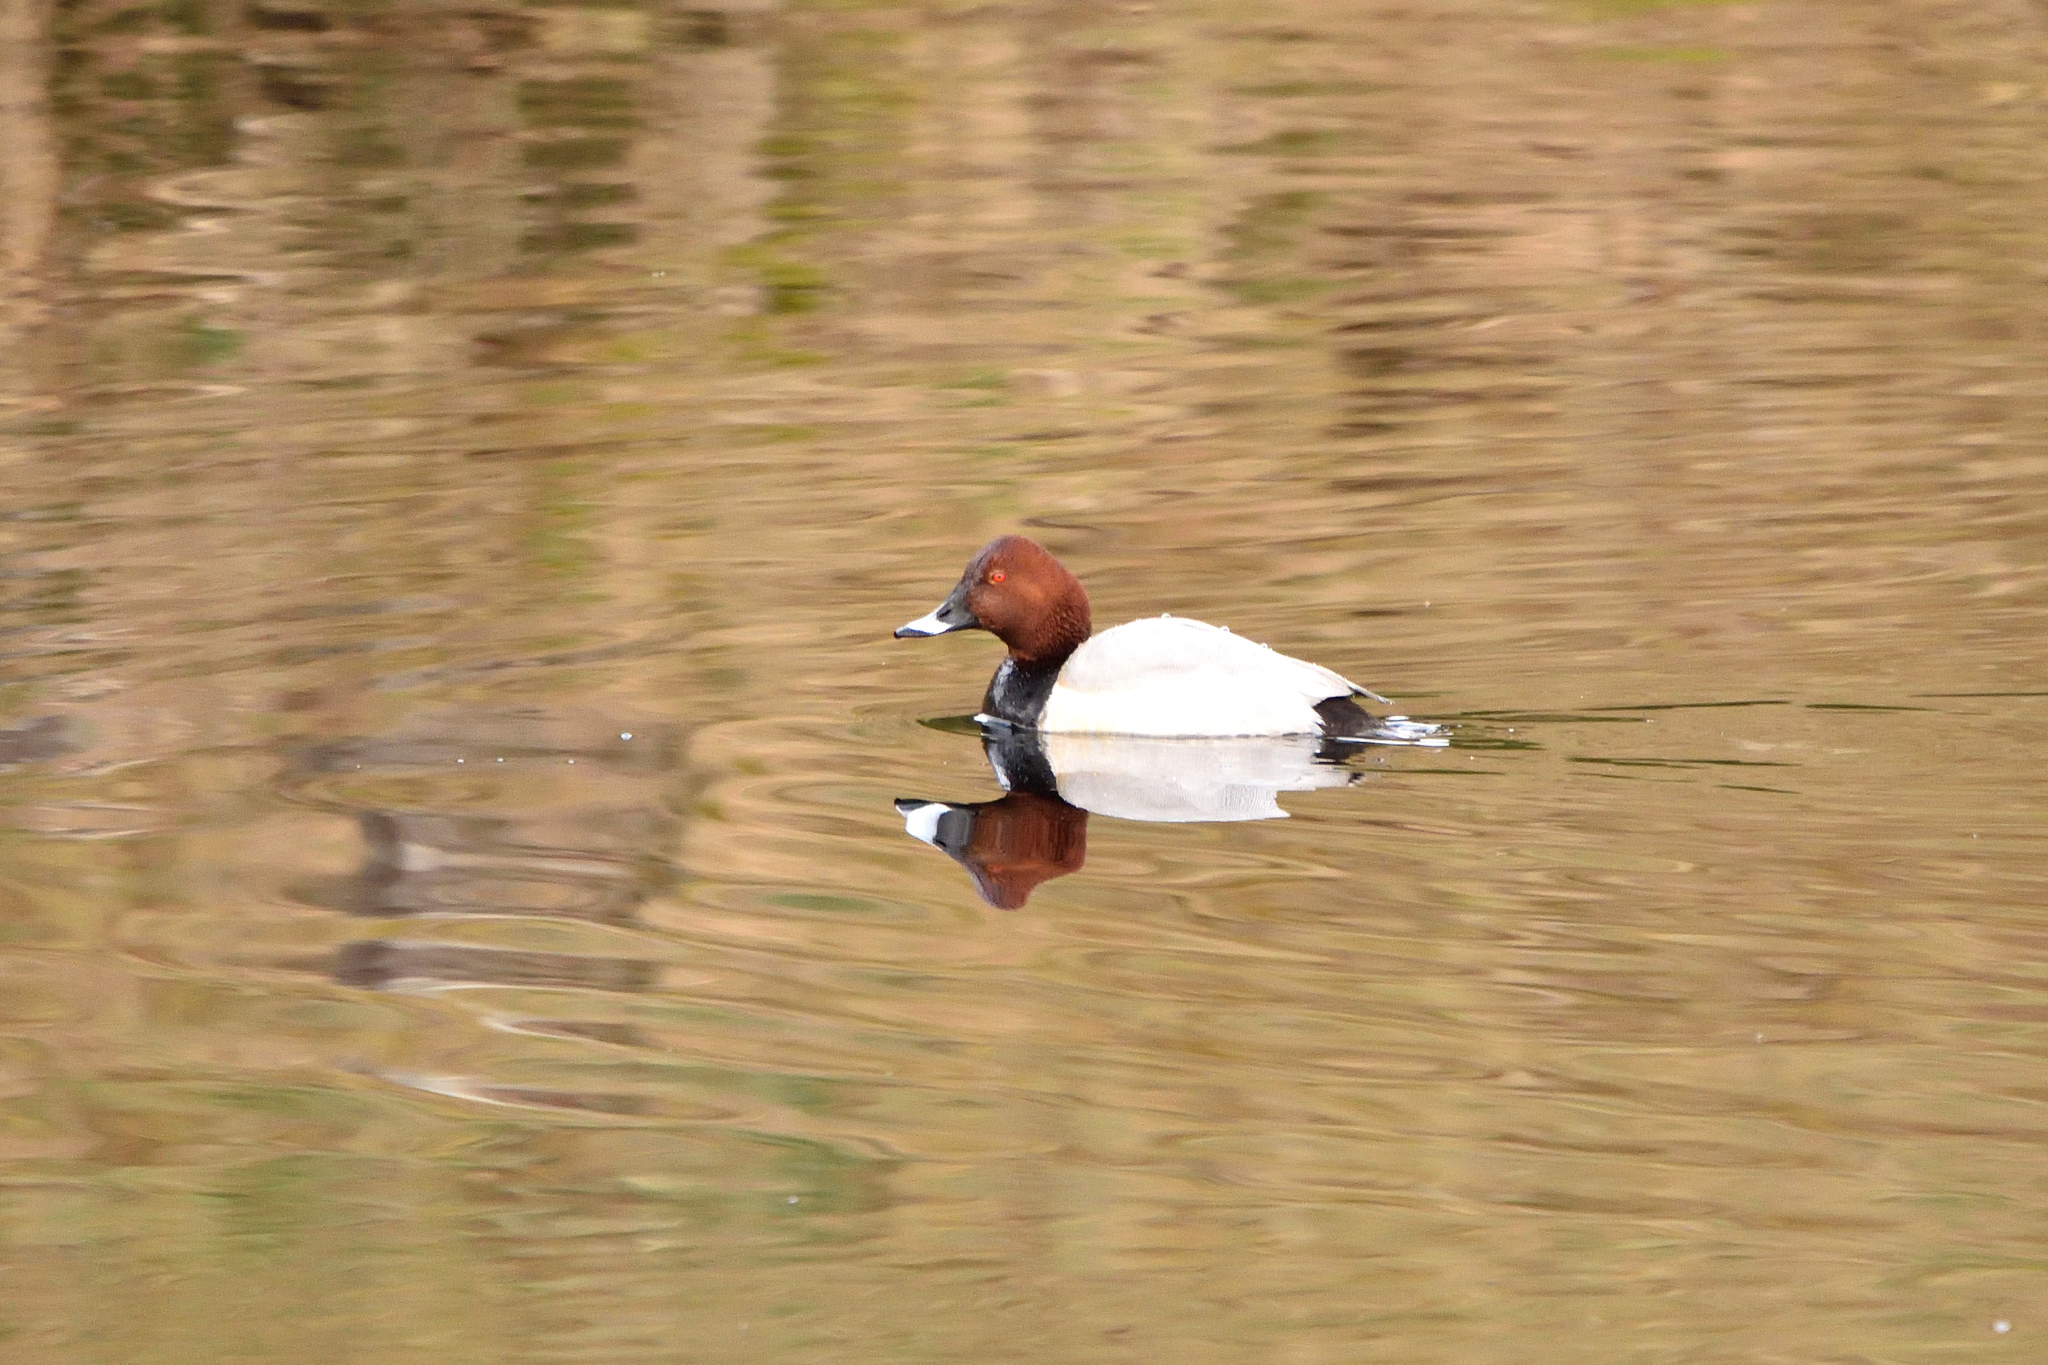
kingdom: Animalia
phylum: Chordata
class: Aves
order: Anseriformes
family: Anatidae
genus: Aythya
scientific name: Aythya ferina
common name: Common pochard
